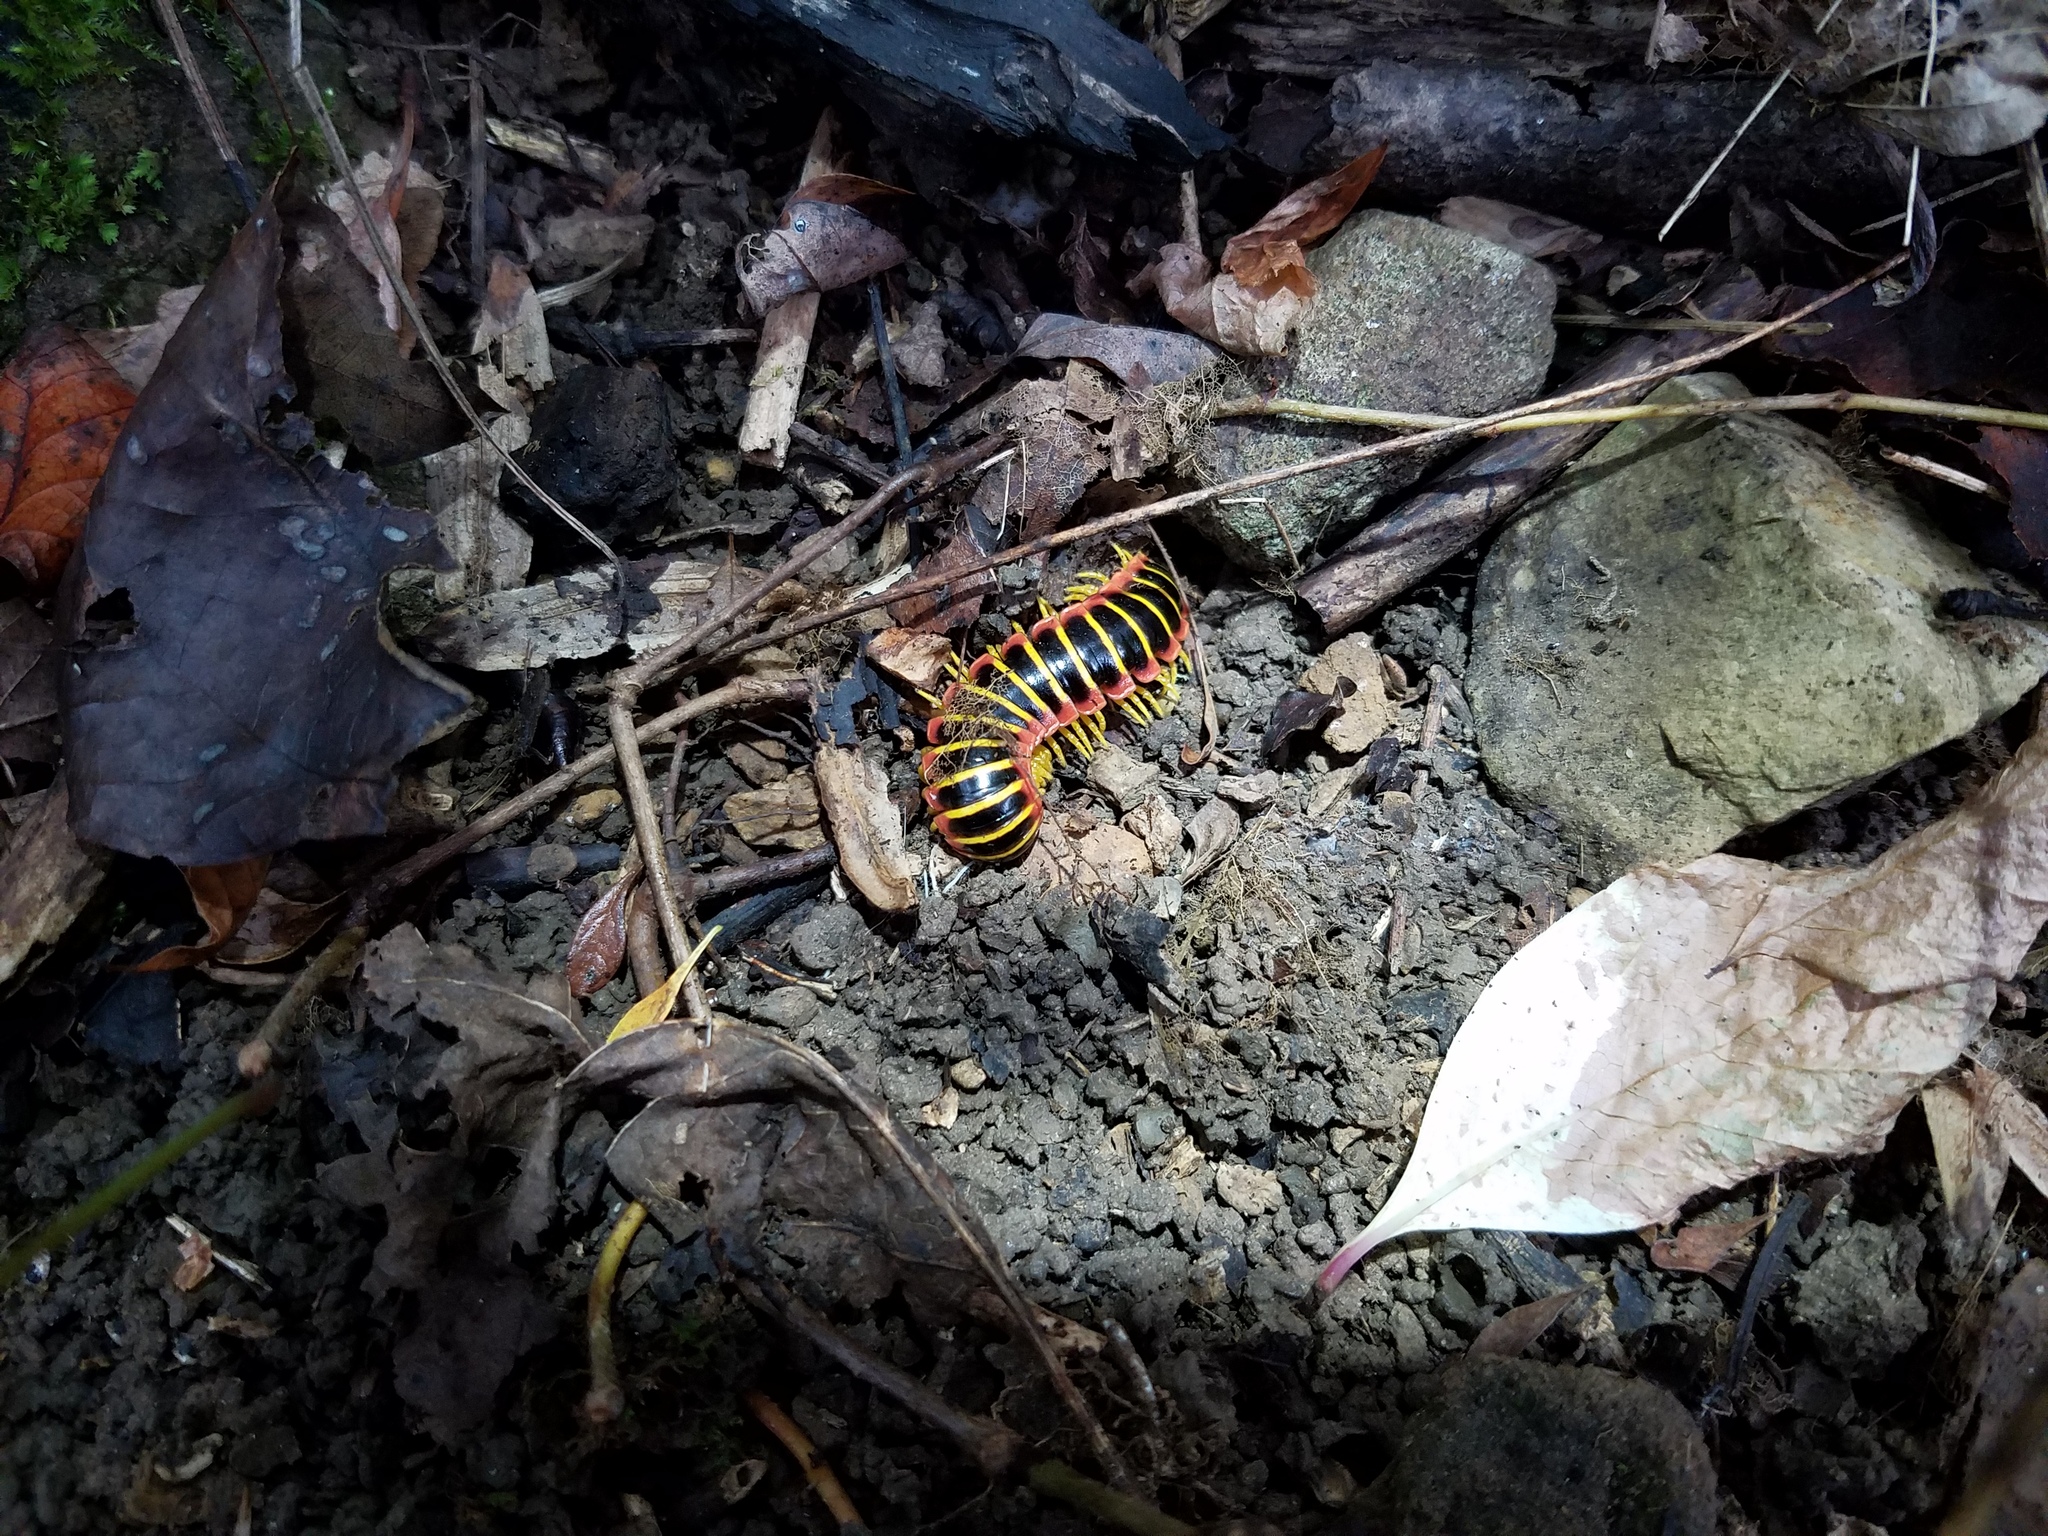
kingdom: Animalia
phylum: Arthropoda
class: Diplopoda
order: Polydesmida
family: Xystodesmidae
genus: Apheloria
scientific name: Apheloria virginiensis
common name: Black-and-gold flat millipede
